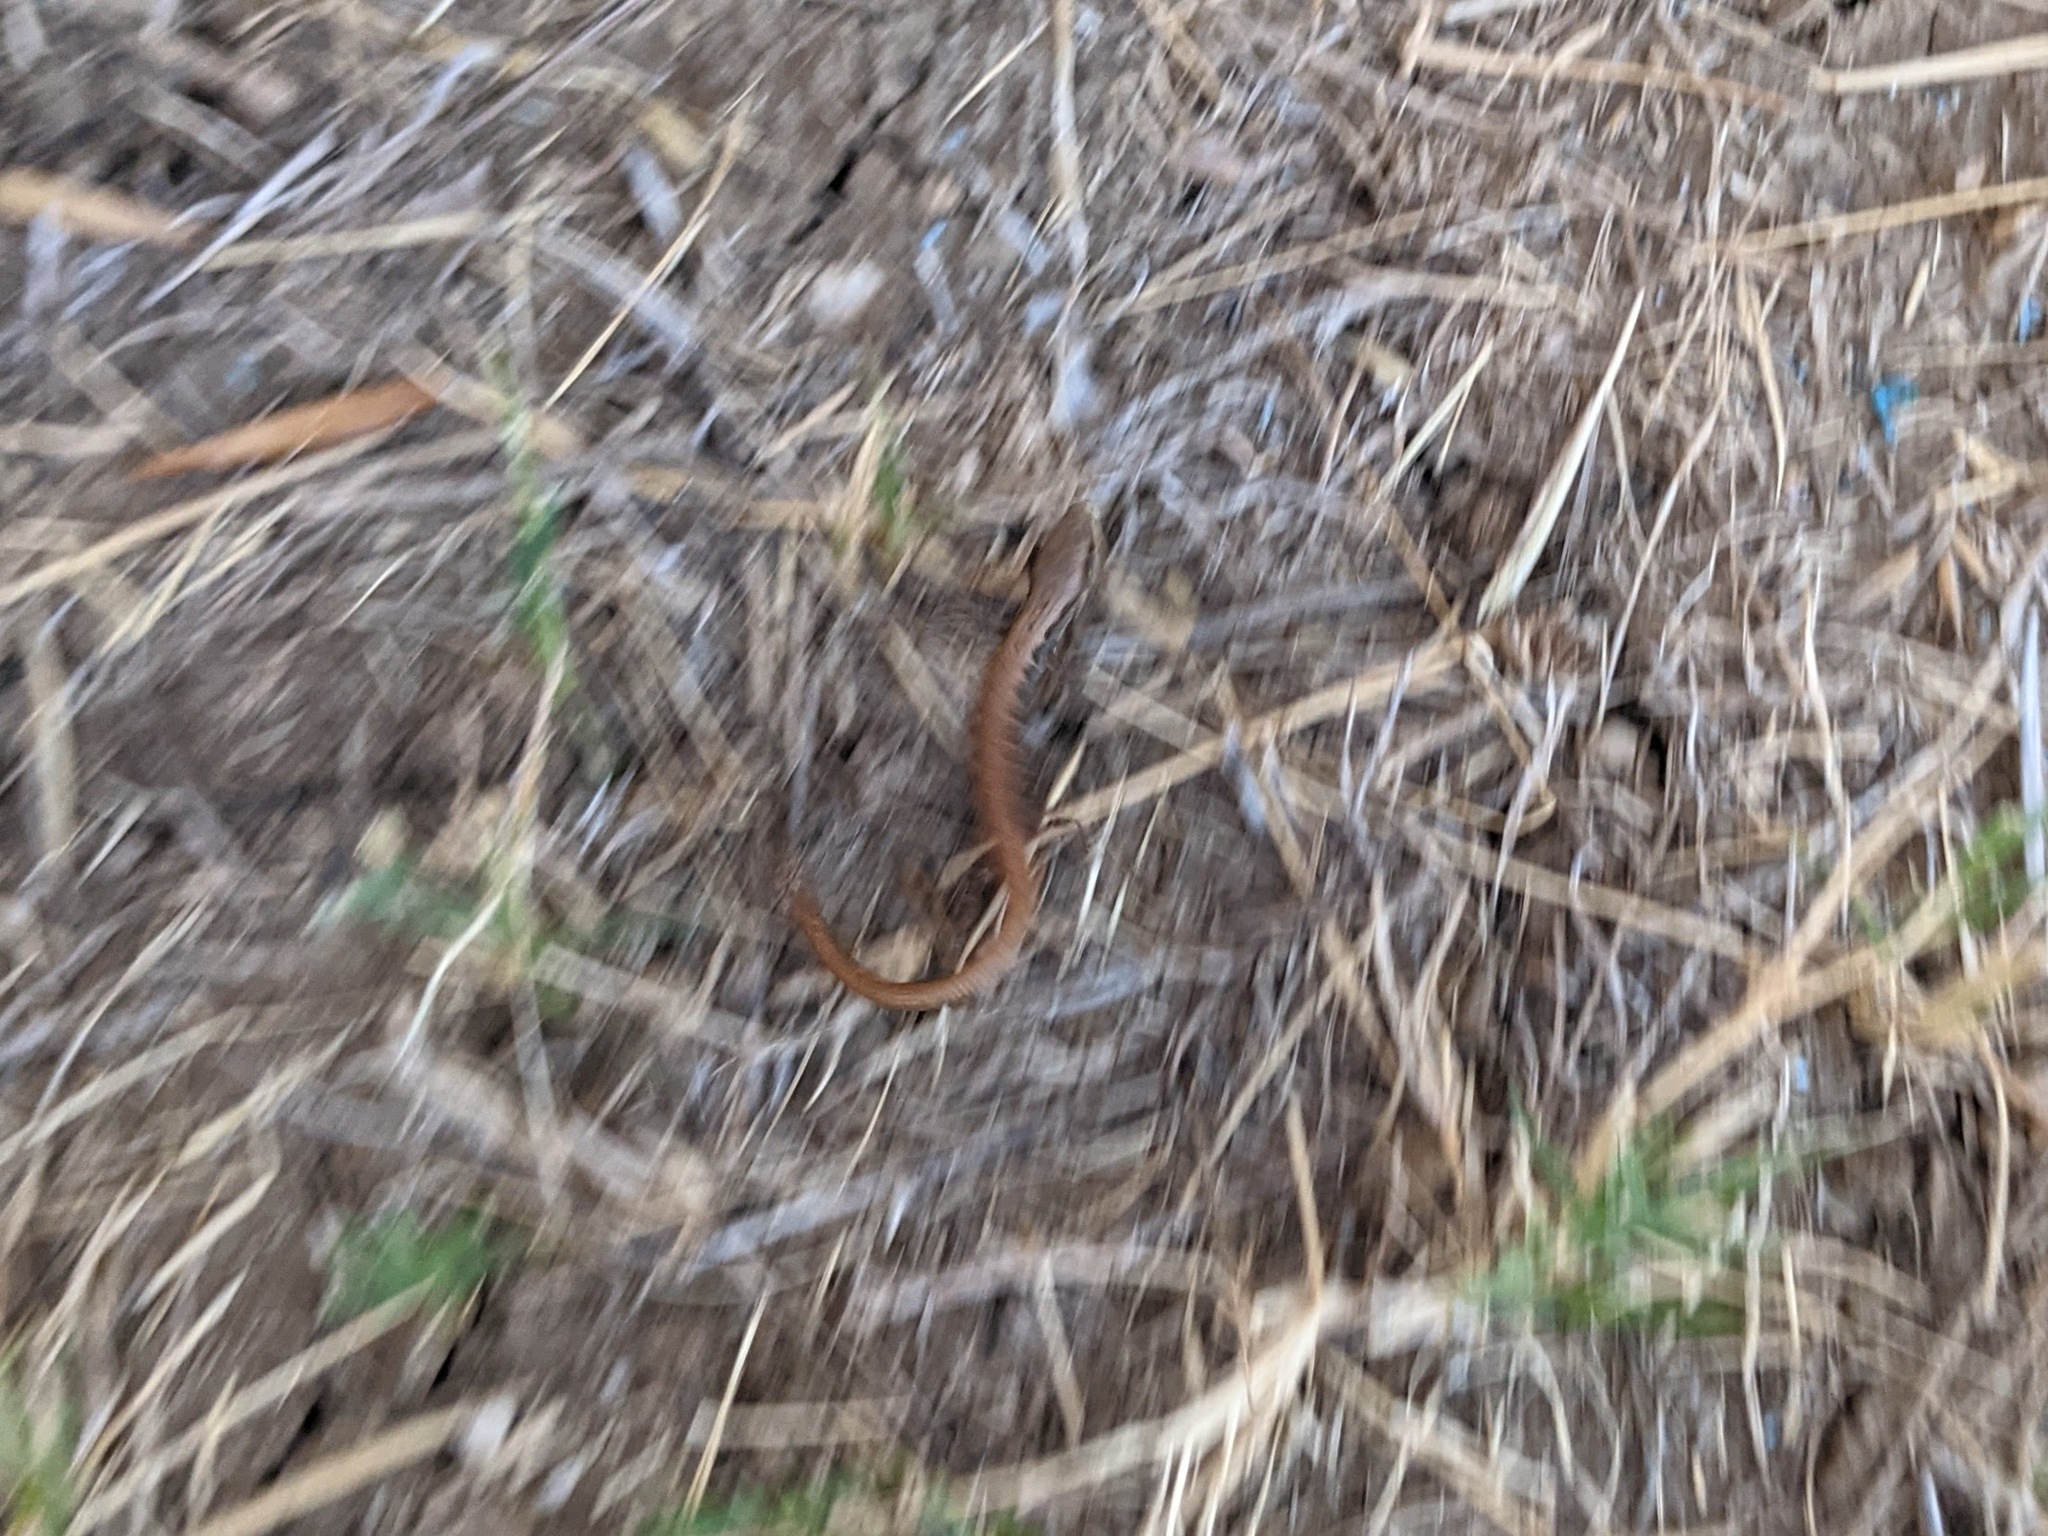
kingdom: Animalia
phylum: Chordata
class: Squamata
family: Anguidae
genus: Elgaria
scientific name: Elgaria multicarinata
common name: Southern alligator lizard
